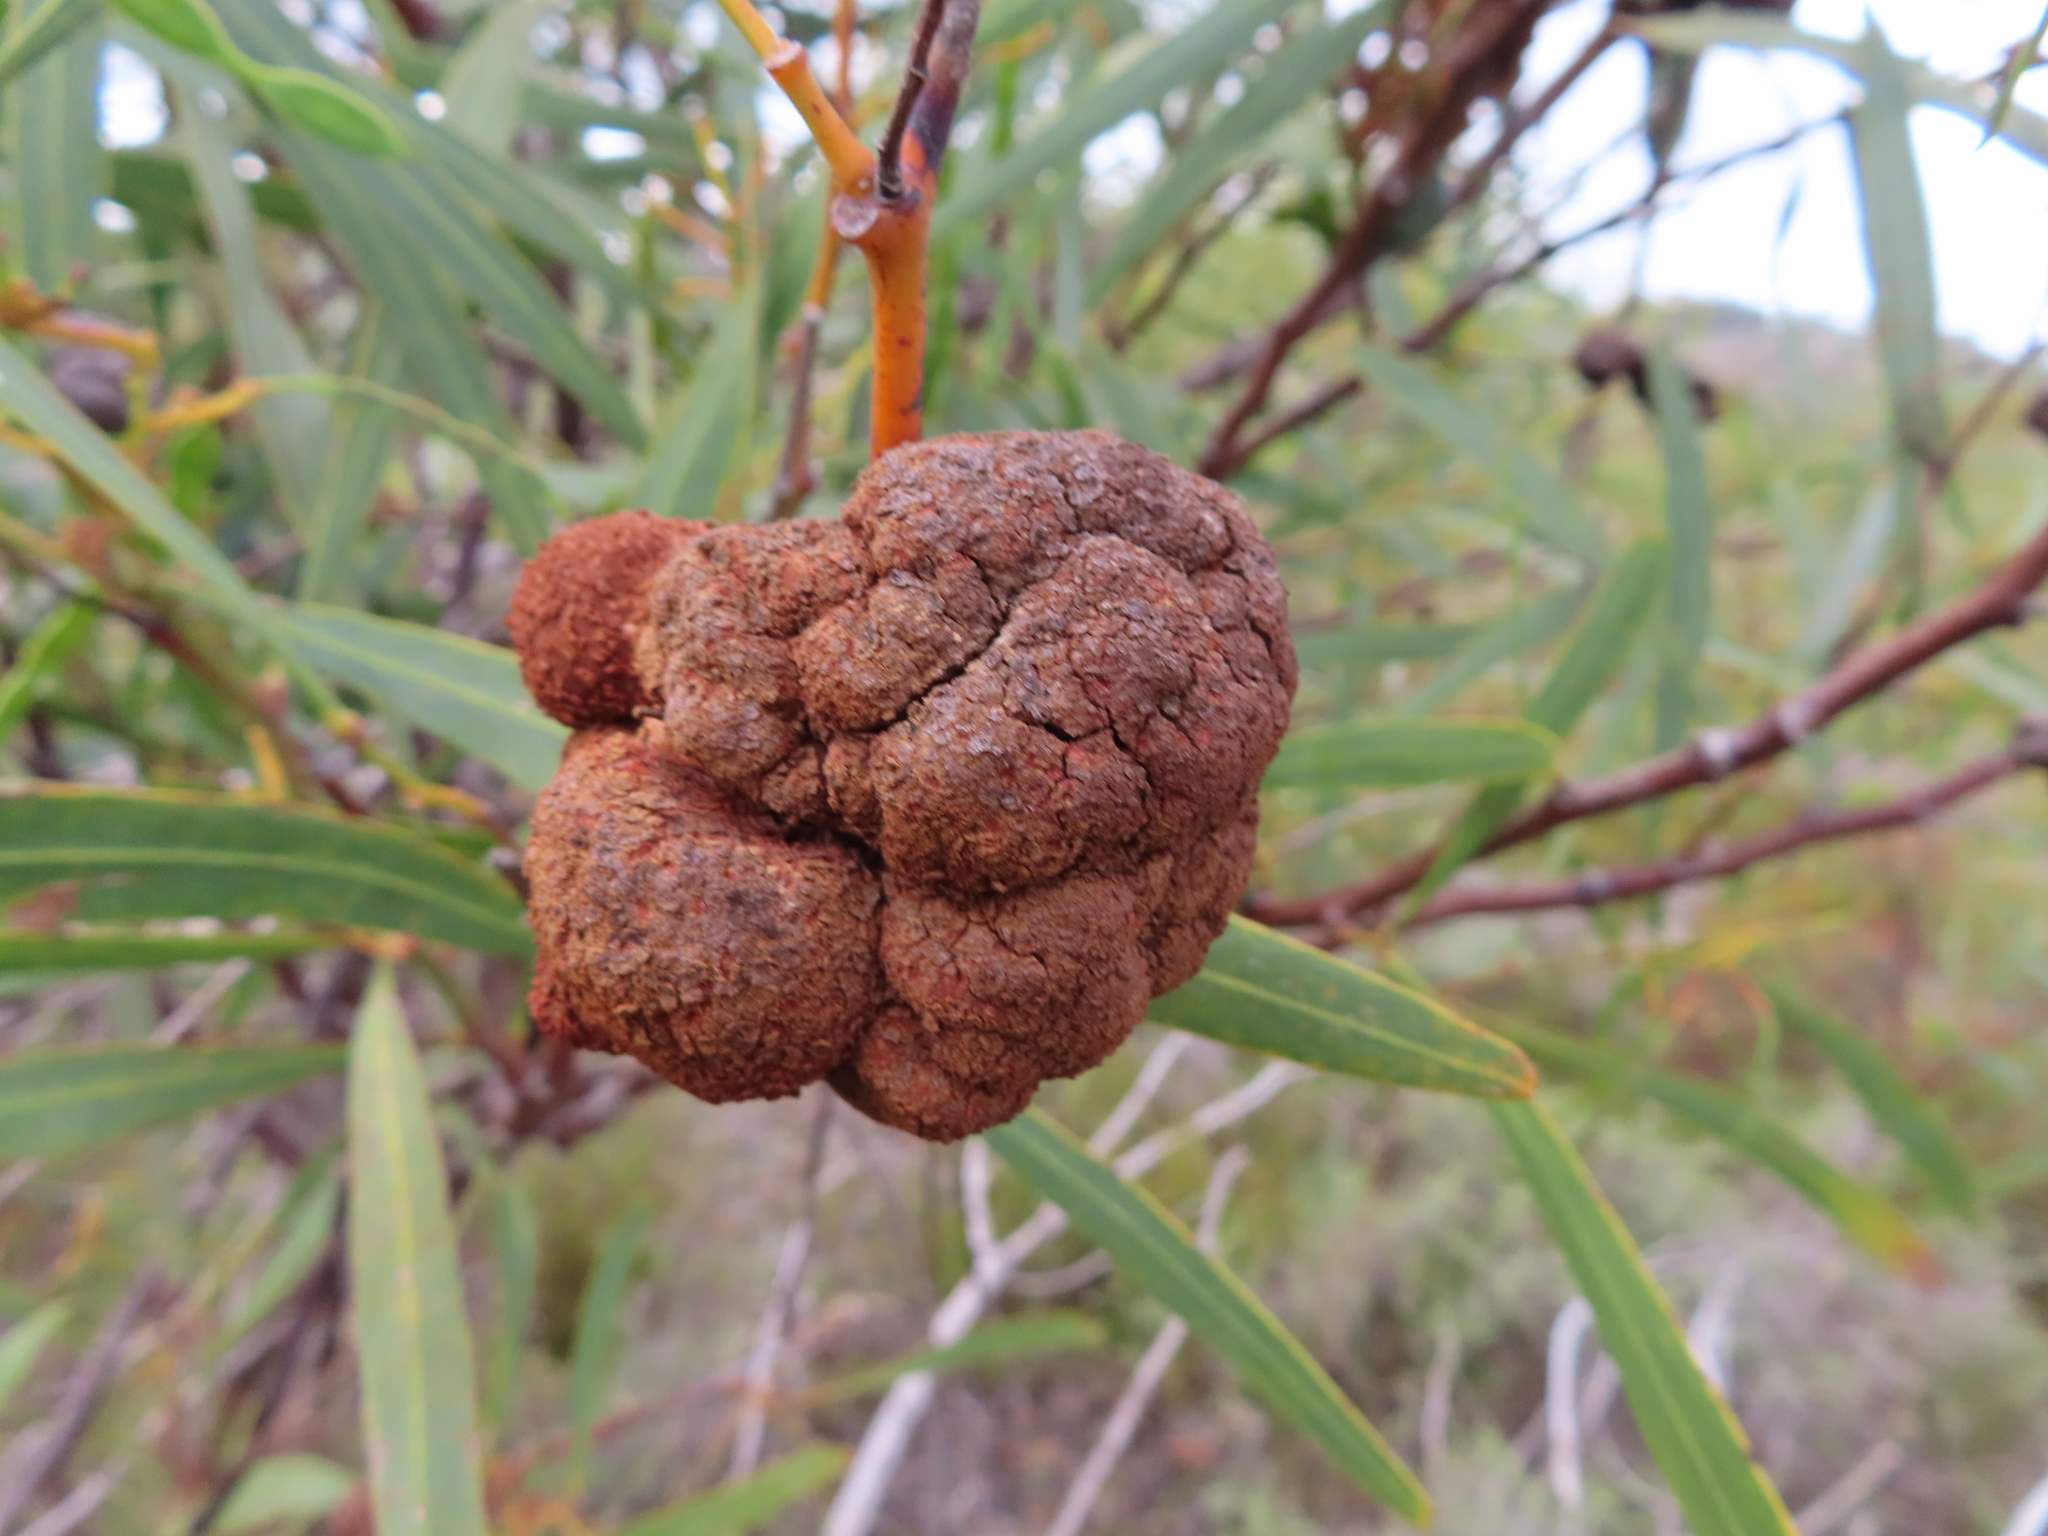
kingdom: Fungi
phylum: Basidiomycota
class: Pucciniomycetes
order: Pucciniales
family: Uromycladiaceae
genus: Uromycladium
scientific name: Uromycladium morrisii
